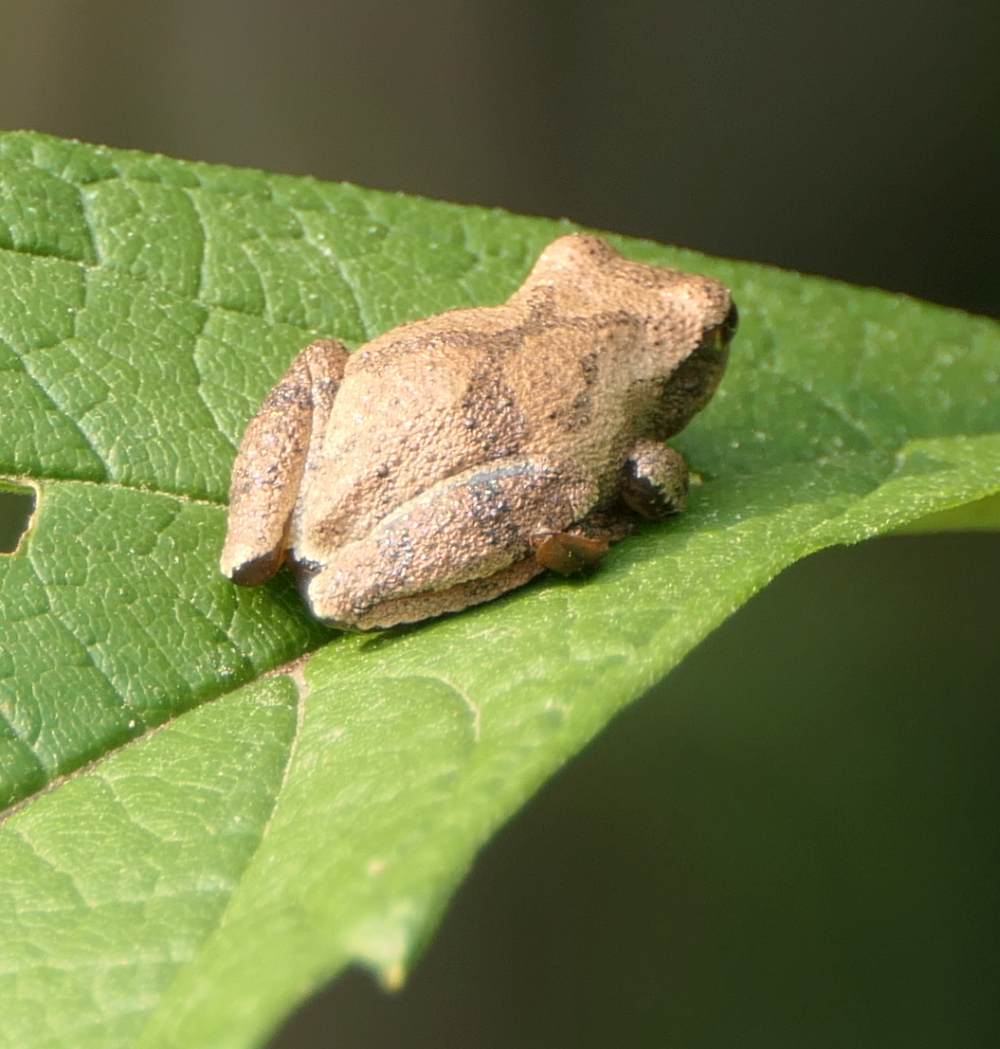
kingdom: Animalia
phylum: Chordata
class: Amphibia
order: Anura
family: Hylidae
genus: Pseudacris
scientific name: Pseudacris crucifer
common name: Spring peeper
